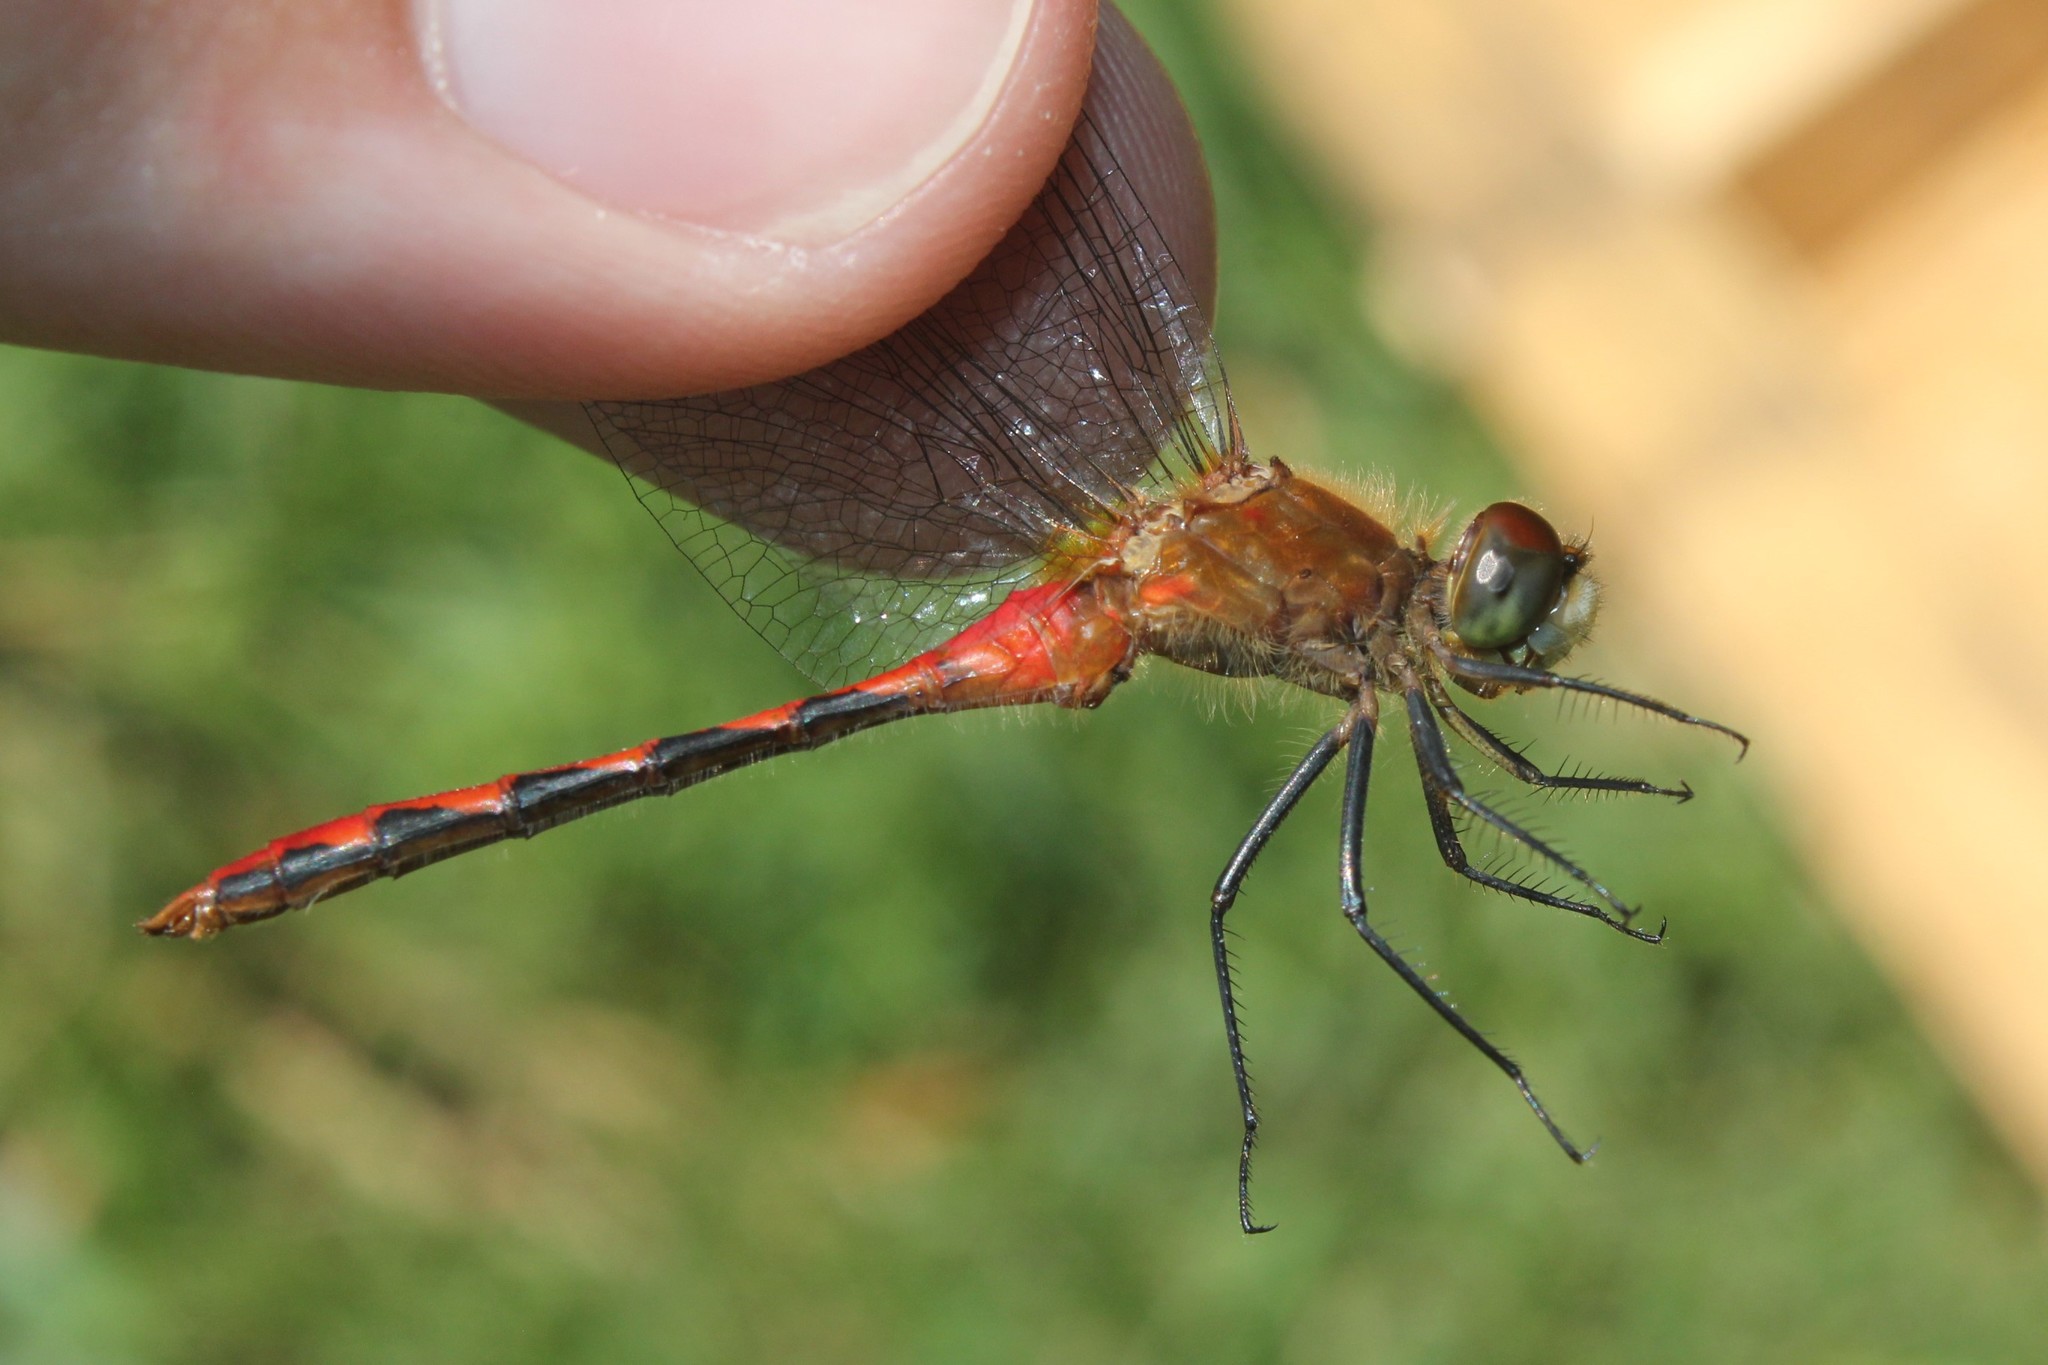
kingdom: Animalia
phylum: Arthropoda
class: Insecta
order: Odonata
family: Libellulidae
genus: Sympetrum
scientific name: Sympetrum obtrusum
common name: White-faced meadowhawk
